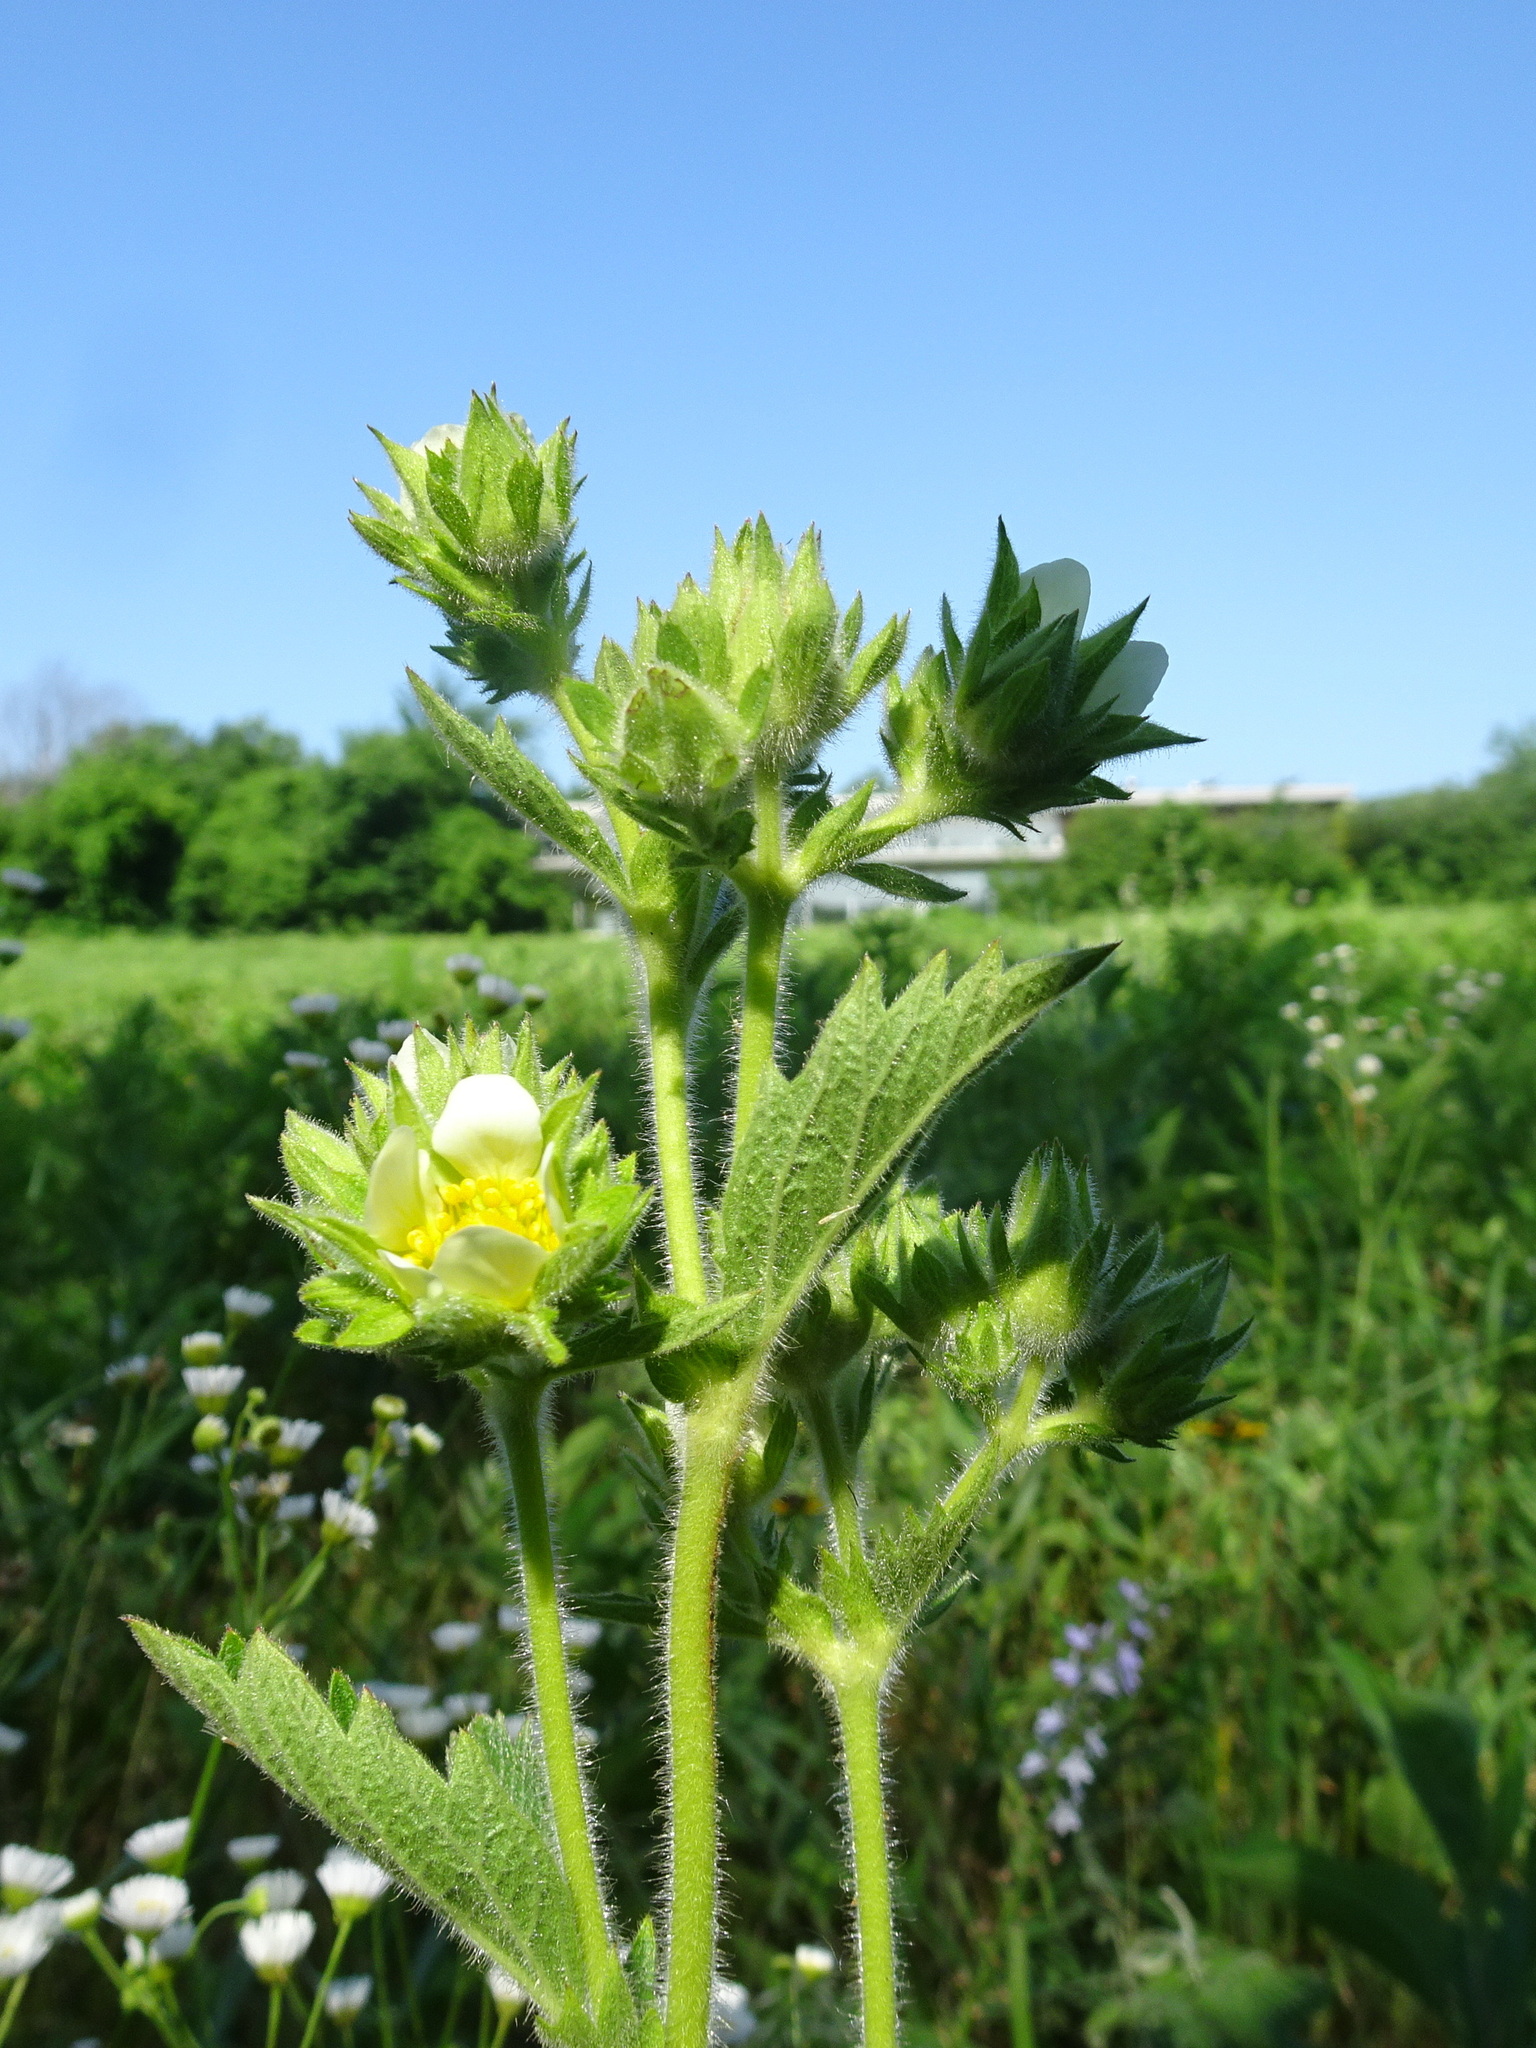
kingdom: Plantae
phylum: Tracheophyta
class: Magnoliopsida
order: Rosales
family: Rosaceae
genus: Drymocallis
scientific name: Drymocallis arguta
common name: Tall cinquefoil
